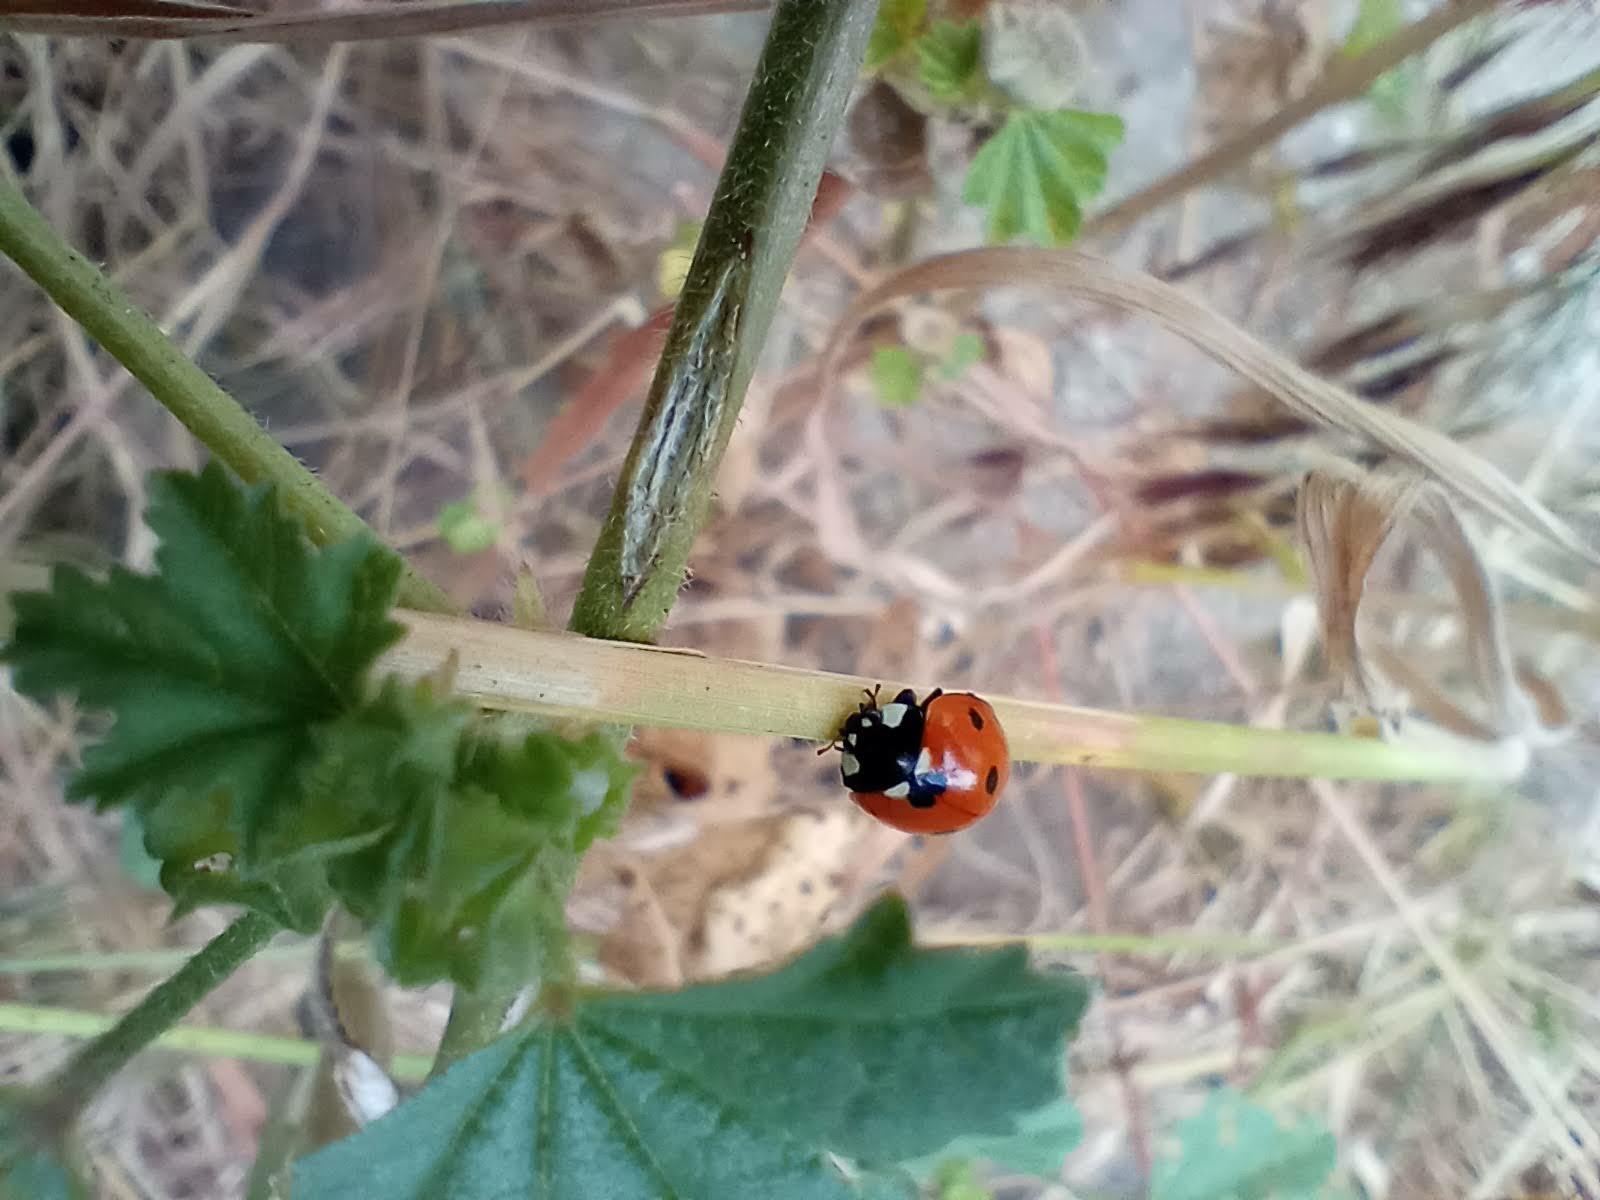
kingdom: Animalia
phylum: Arthropoda
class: Insecta
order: Coleoptera
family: Coccinellidae
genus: Coccinella
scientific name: Coccinella septempunctata
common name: Sevenspotted lady beetle
